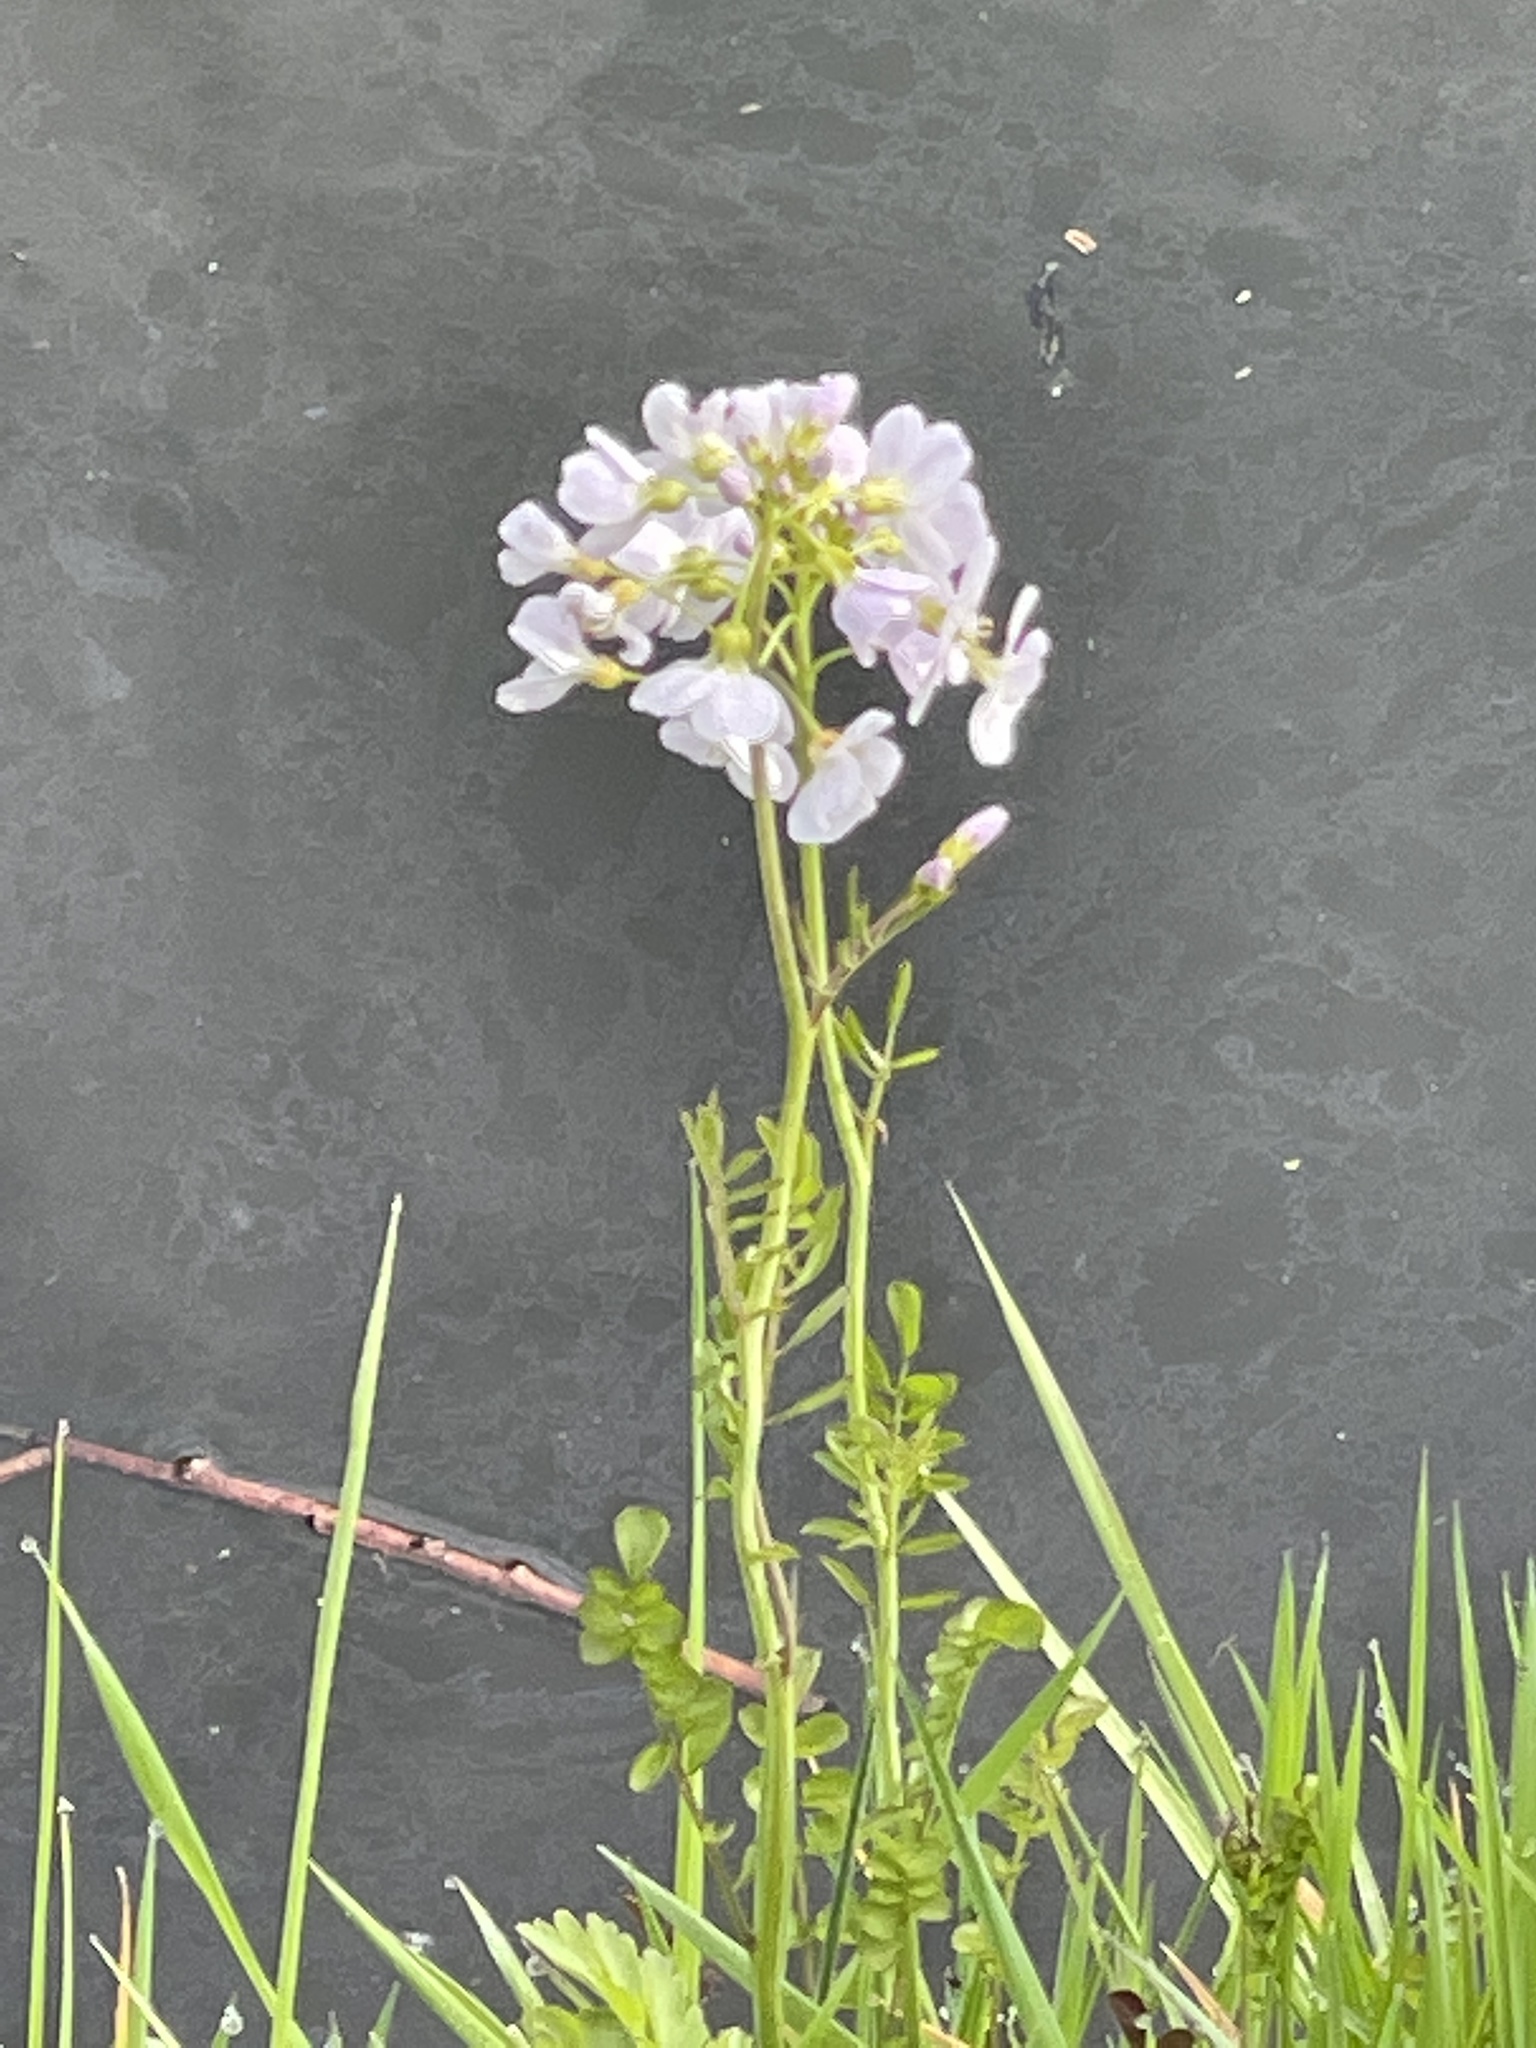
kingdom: Plantae
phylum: Tracheophyta
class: Magnoliopsida
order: Brassicales
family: Brassicaceae
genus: Cardamine
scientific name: Cardamine pratensis
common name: Cuckoo flower
